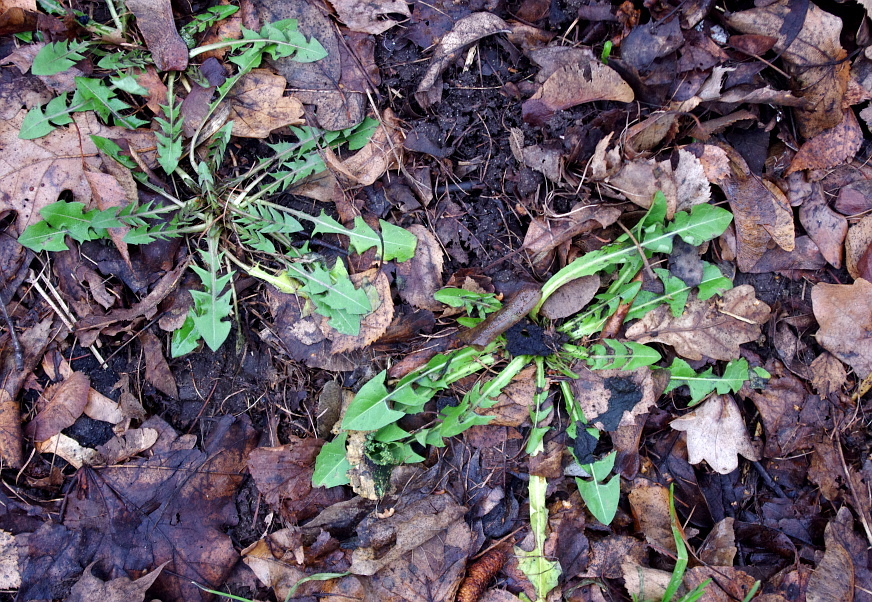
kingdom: Plantae
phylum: Tracheophyta
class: Magnoliopsida
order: Asterales
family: Asteraceae
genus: Taraxacum
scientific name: Taraxacum officinale
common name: Common dandelion
